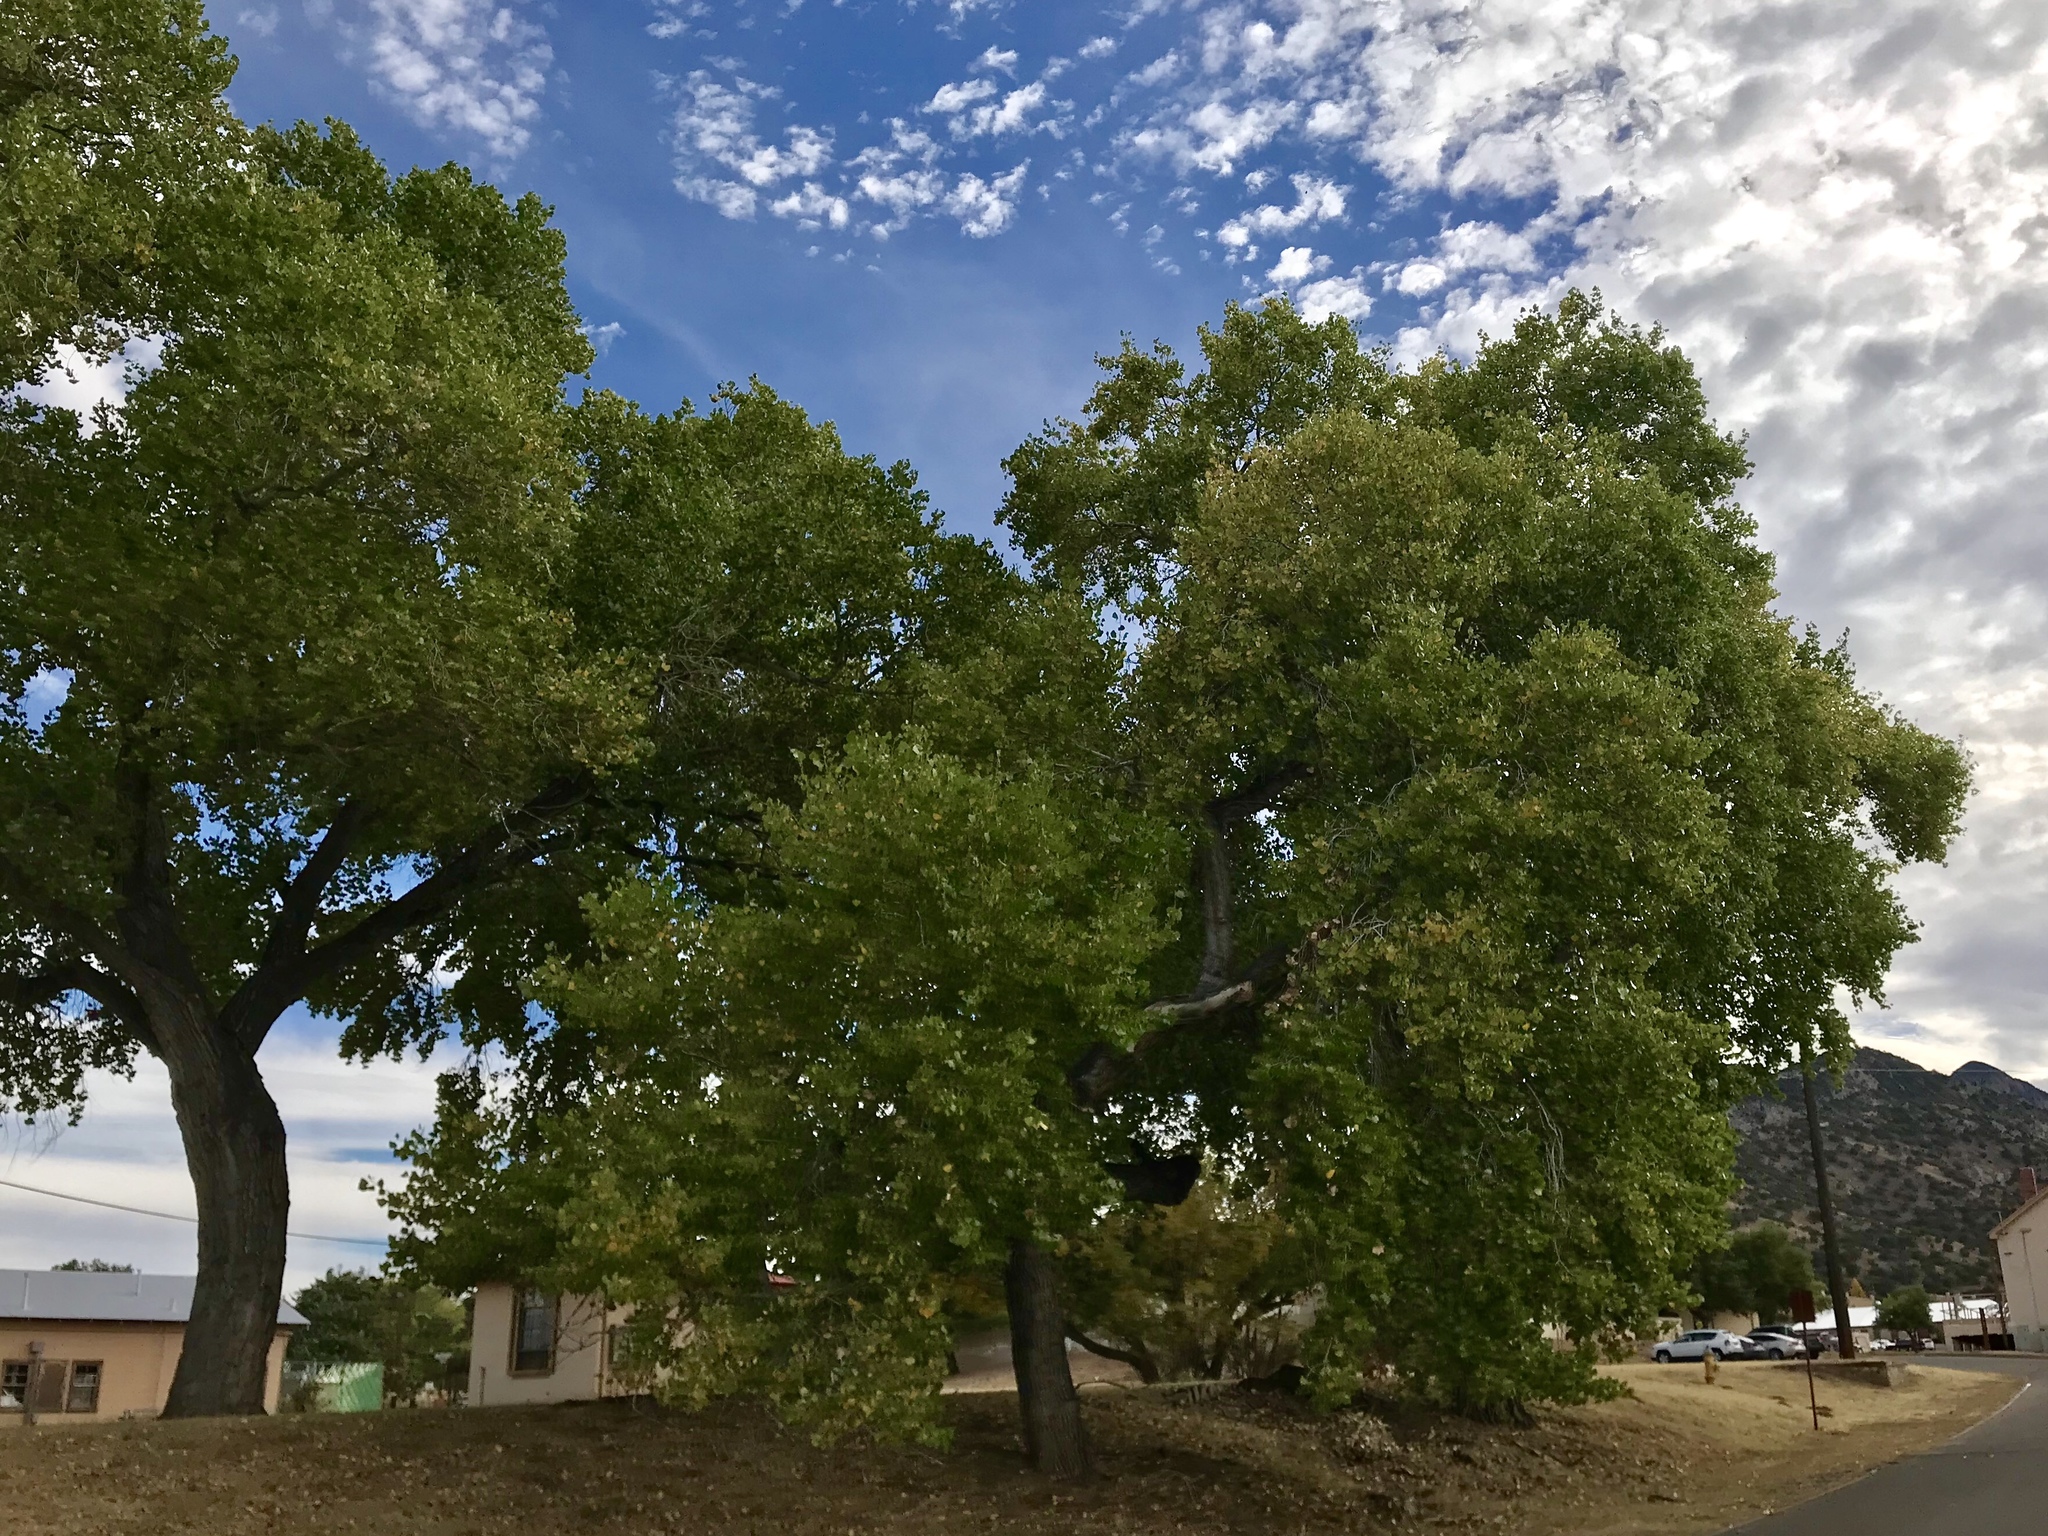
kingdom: Plantae
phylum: Tracheophyta
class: Magnoliopsida
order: Proteales
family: Platanaceae
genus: Platanus
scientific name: Platanus wrightii
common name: Arizona sycamore
